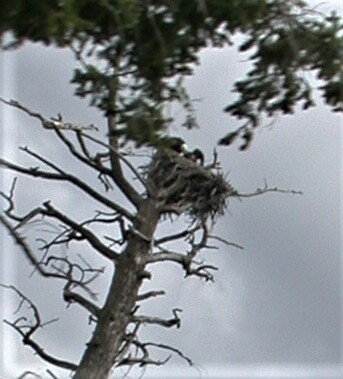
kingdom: Animalia
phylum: Chordata
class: Aves
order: Accipitriformes
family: Accipitridae
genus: Haliaeetus
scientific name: Haliaeetus leucocephalus
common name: Bald eagle
